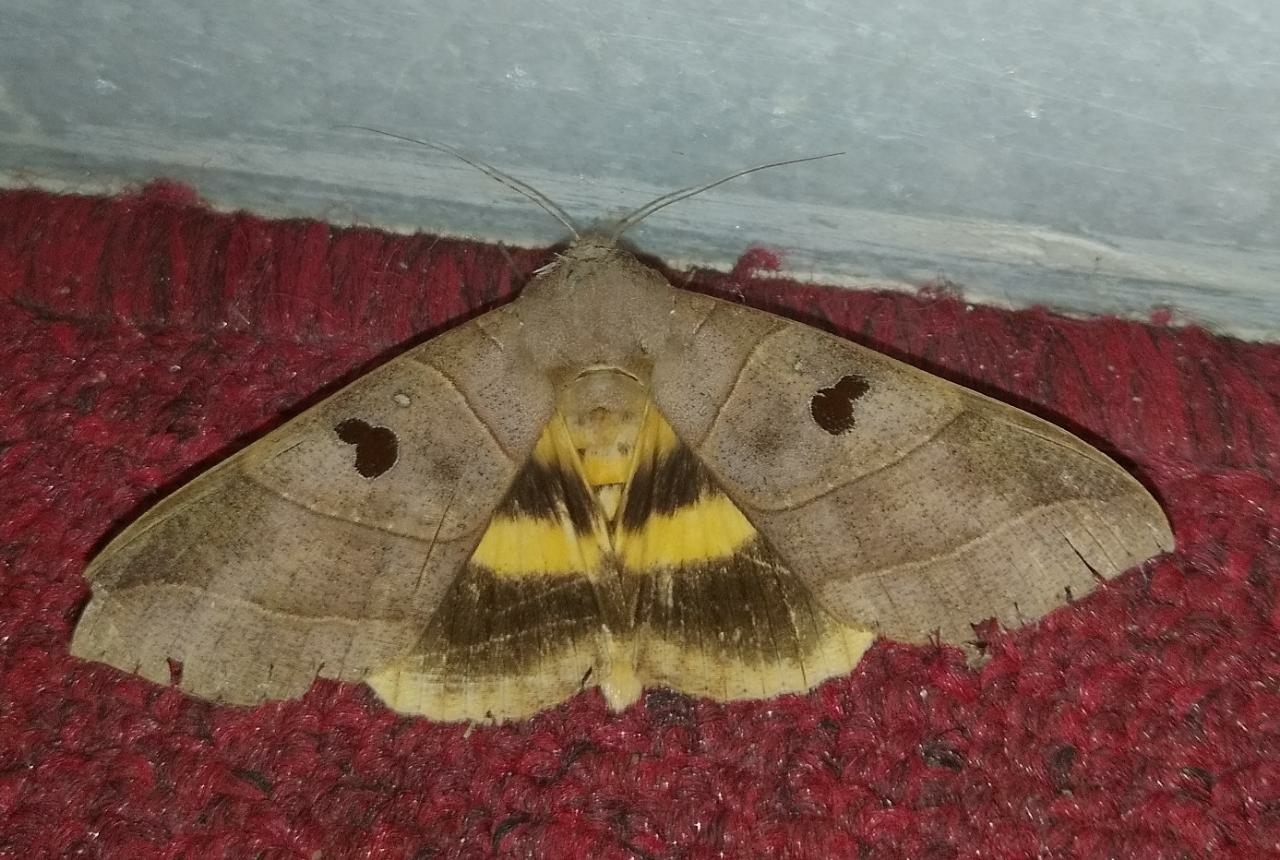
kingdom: Animalia
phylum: Arthropoda
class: Insecta
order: Lepidoptera
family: Erebidae
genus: Thyas
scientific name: Thyas coronata
